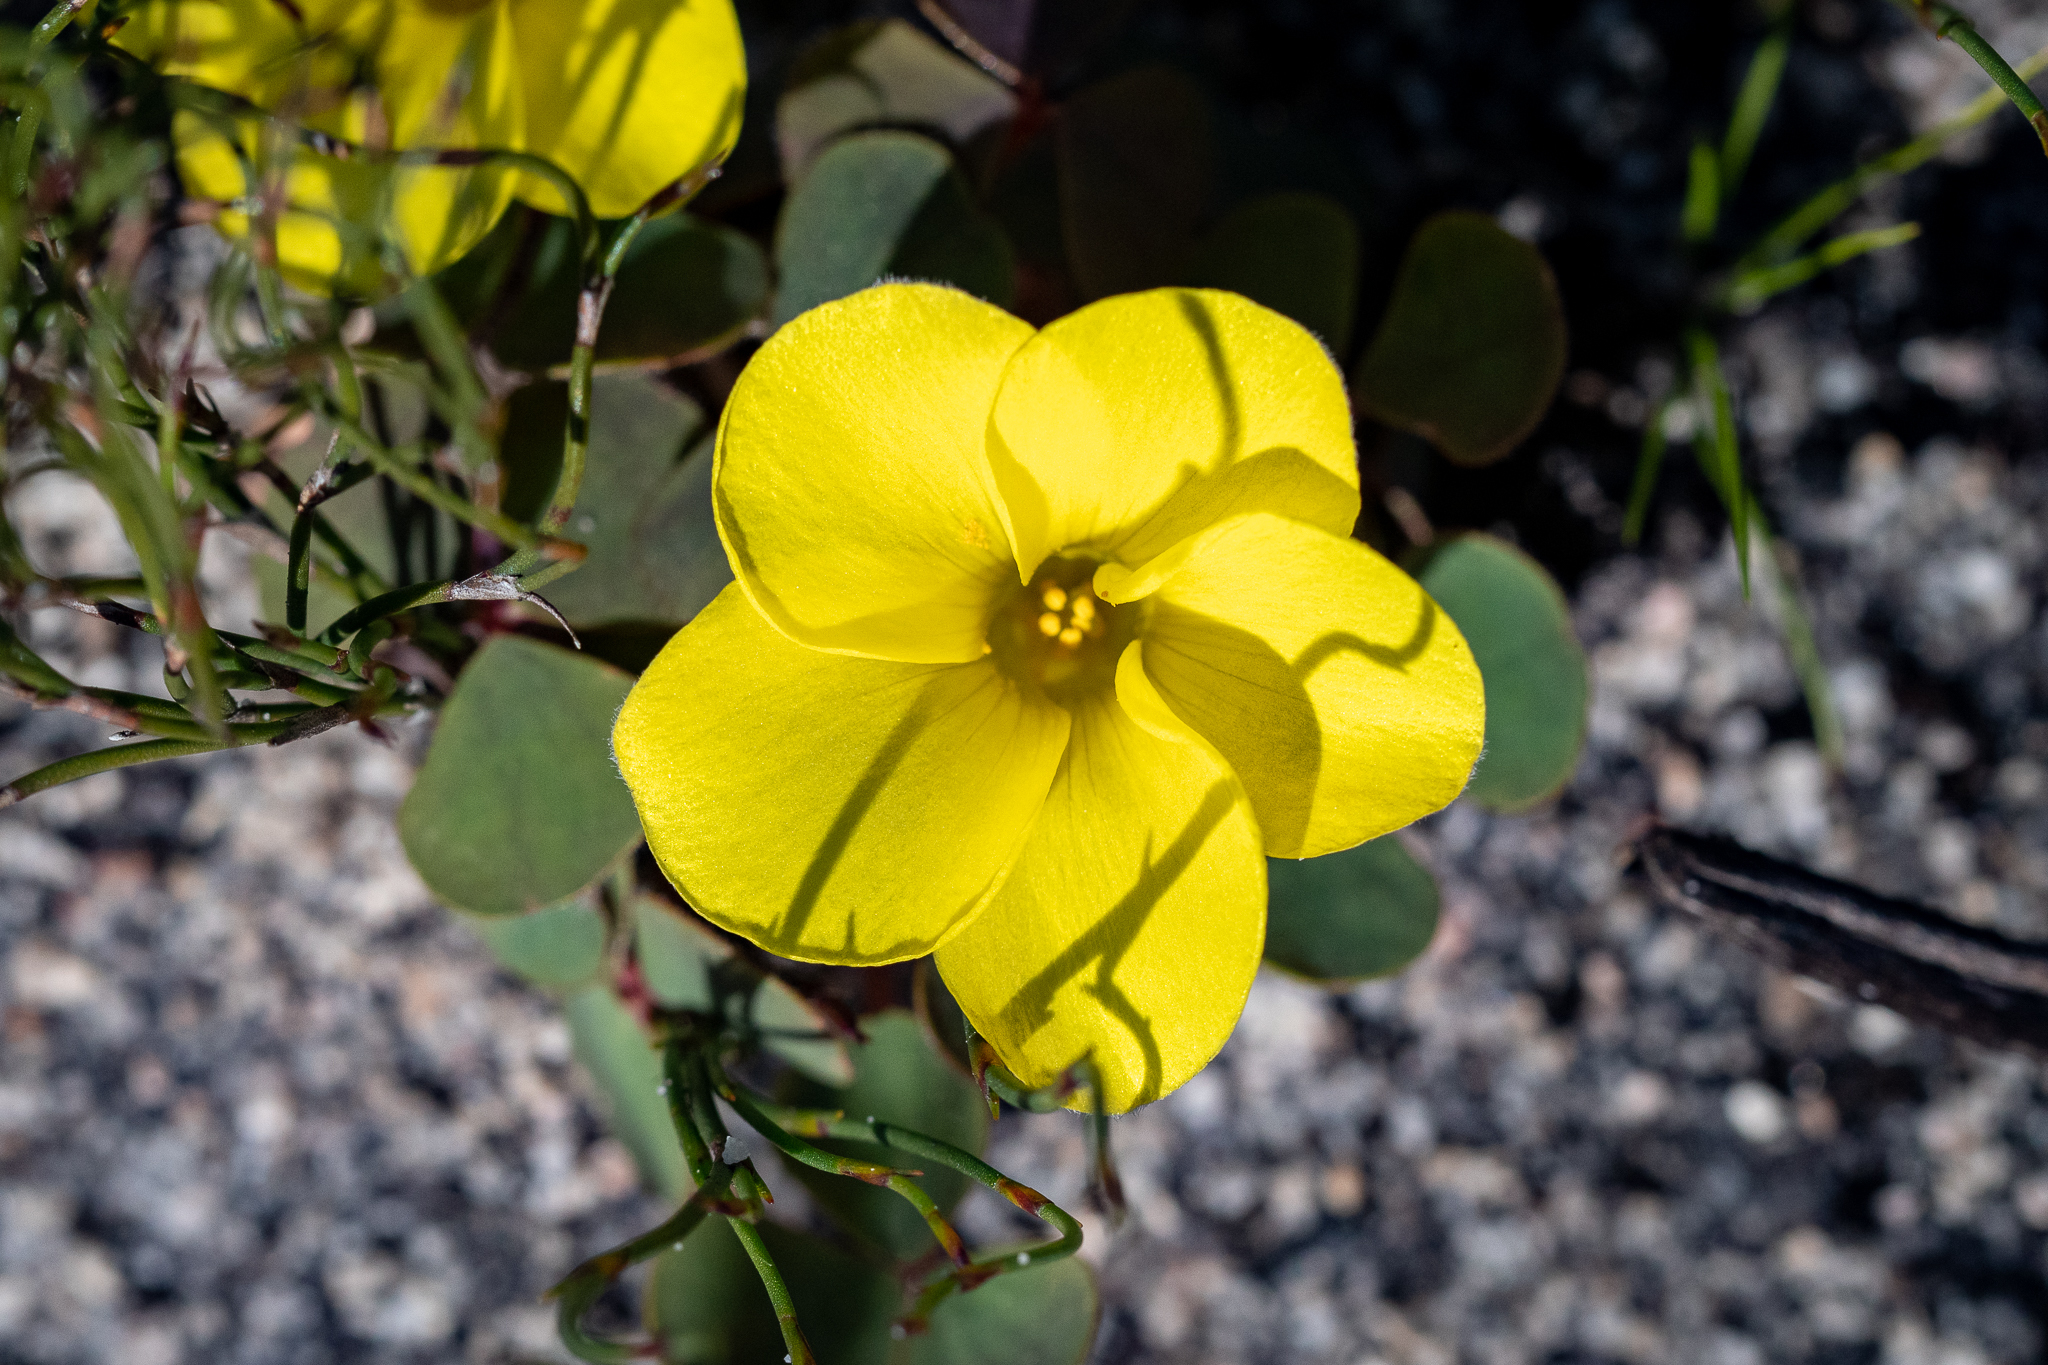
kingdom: Plantae
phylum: Tracheophyta
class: Magnoliopsida
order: Oxalidales
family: Oxalidaceae
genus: Oxalis
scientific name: Oxalis luteola
